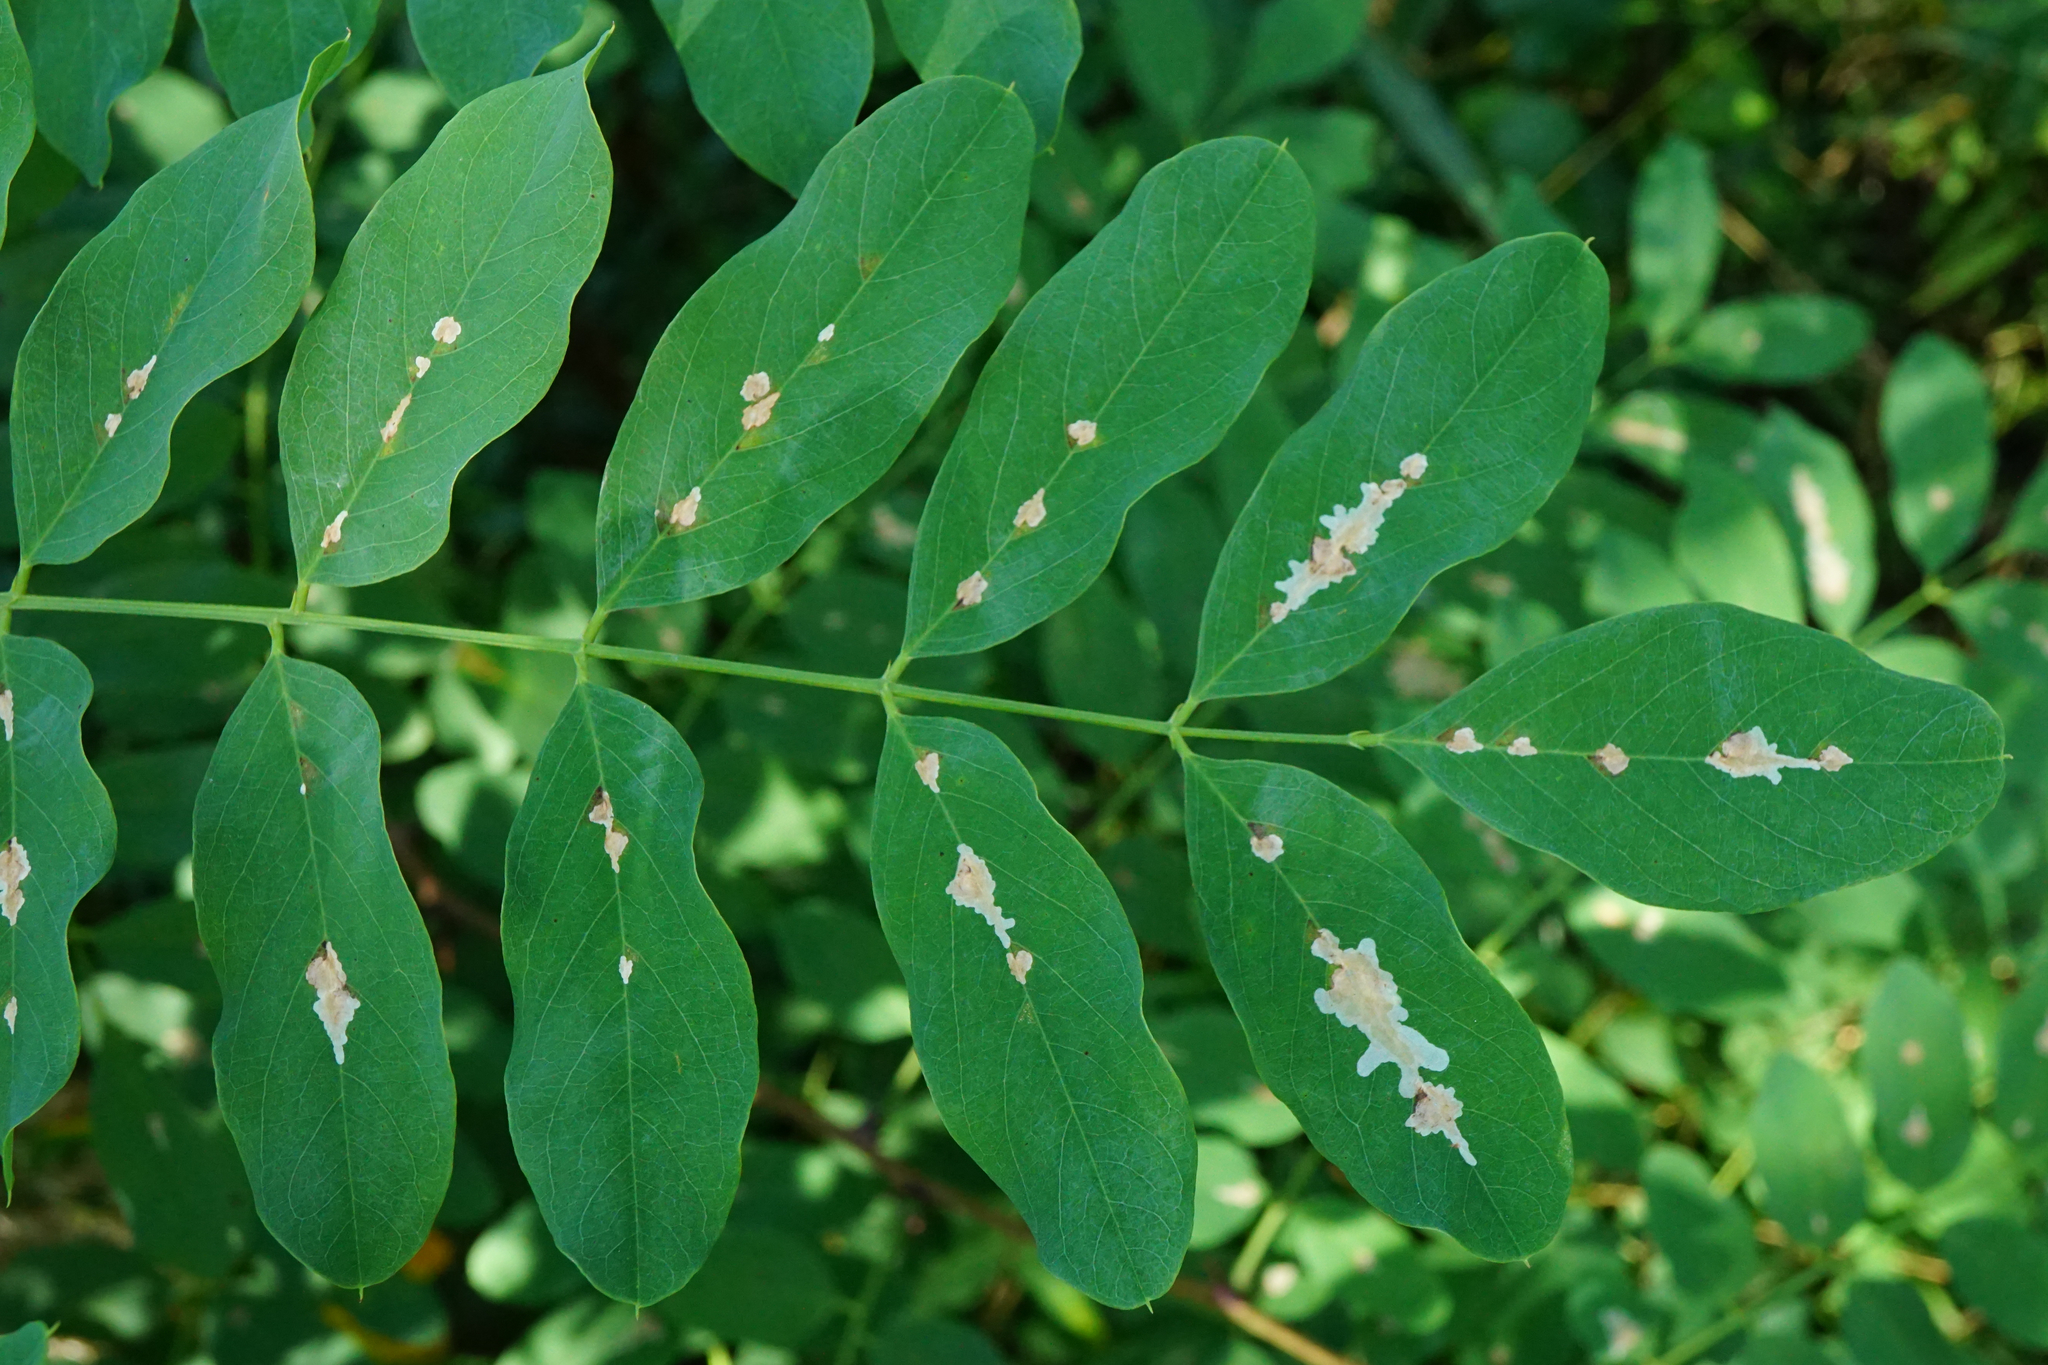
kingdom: Animalia
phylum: Arthropoda
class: Insecta
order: Lepidoptera
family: Gracillariidae
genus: Parectopa
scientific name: Parectopa robiniella
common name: Locust digitate leafminer
